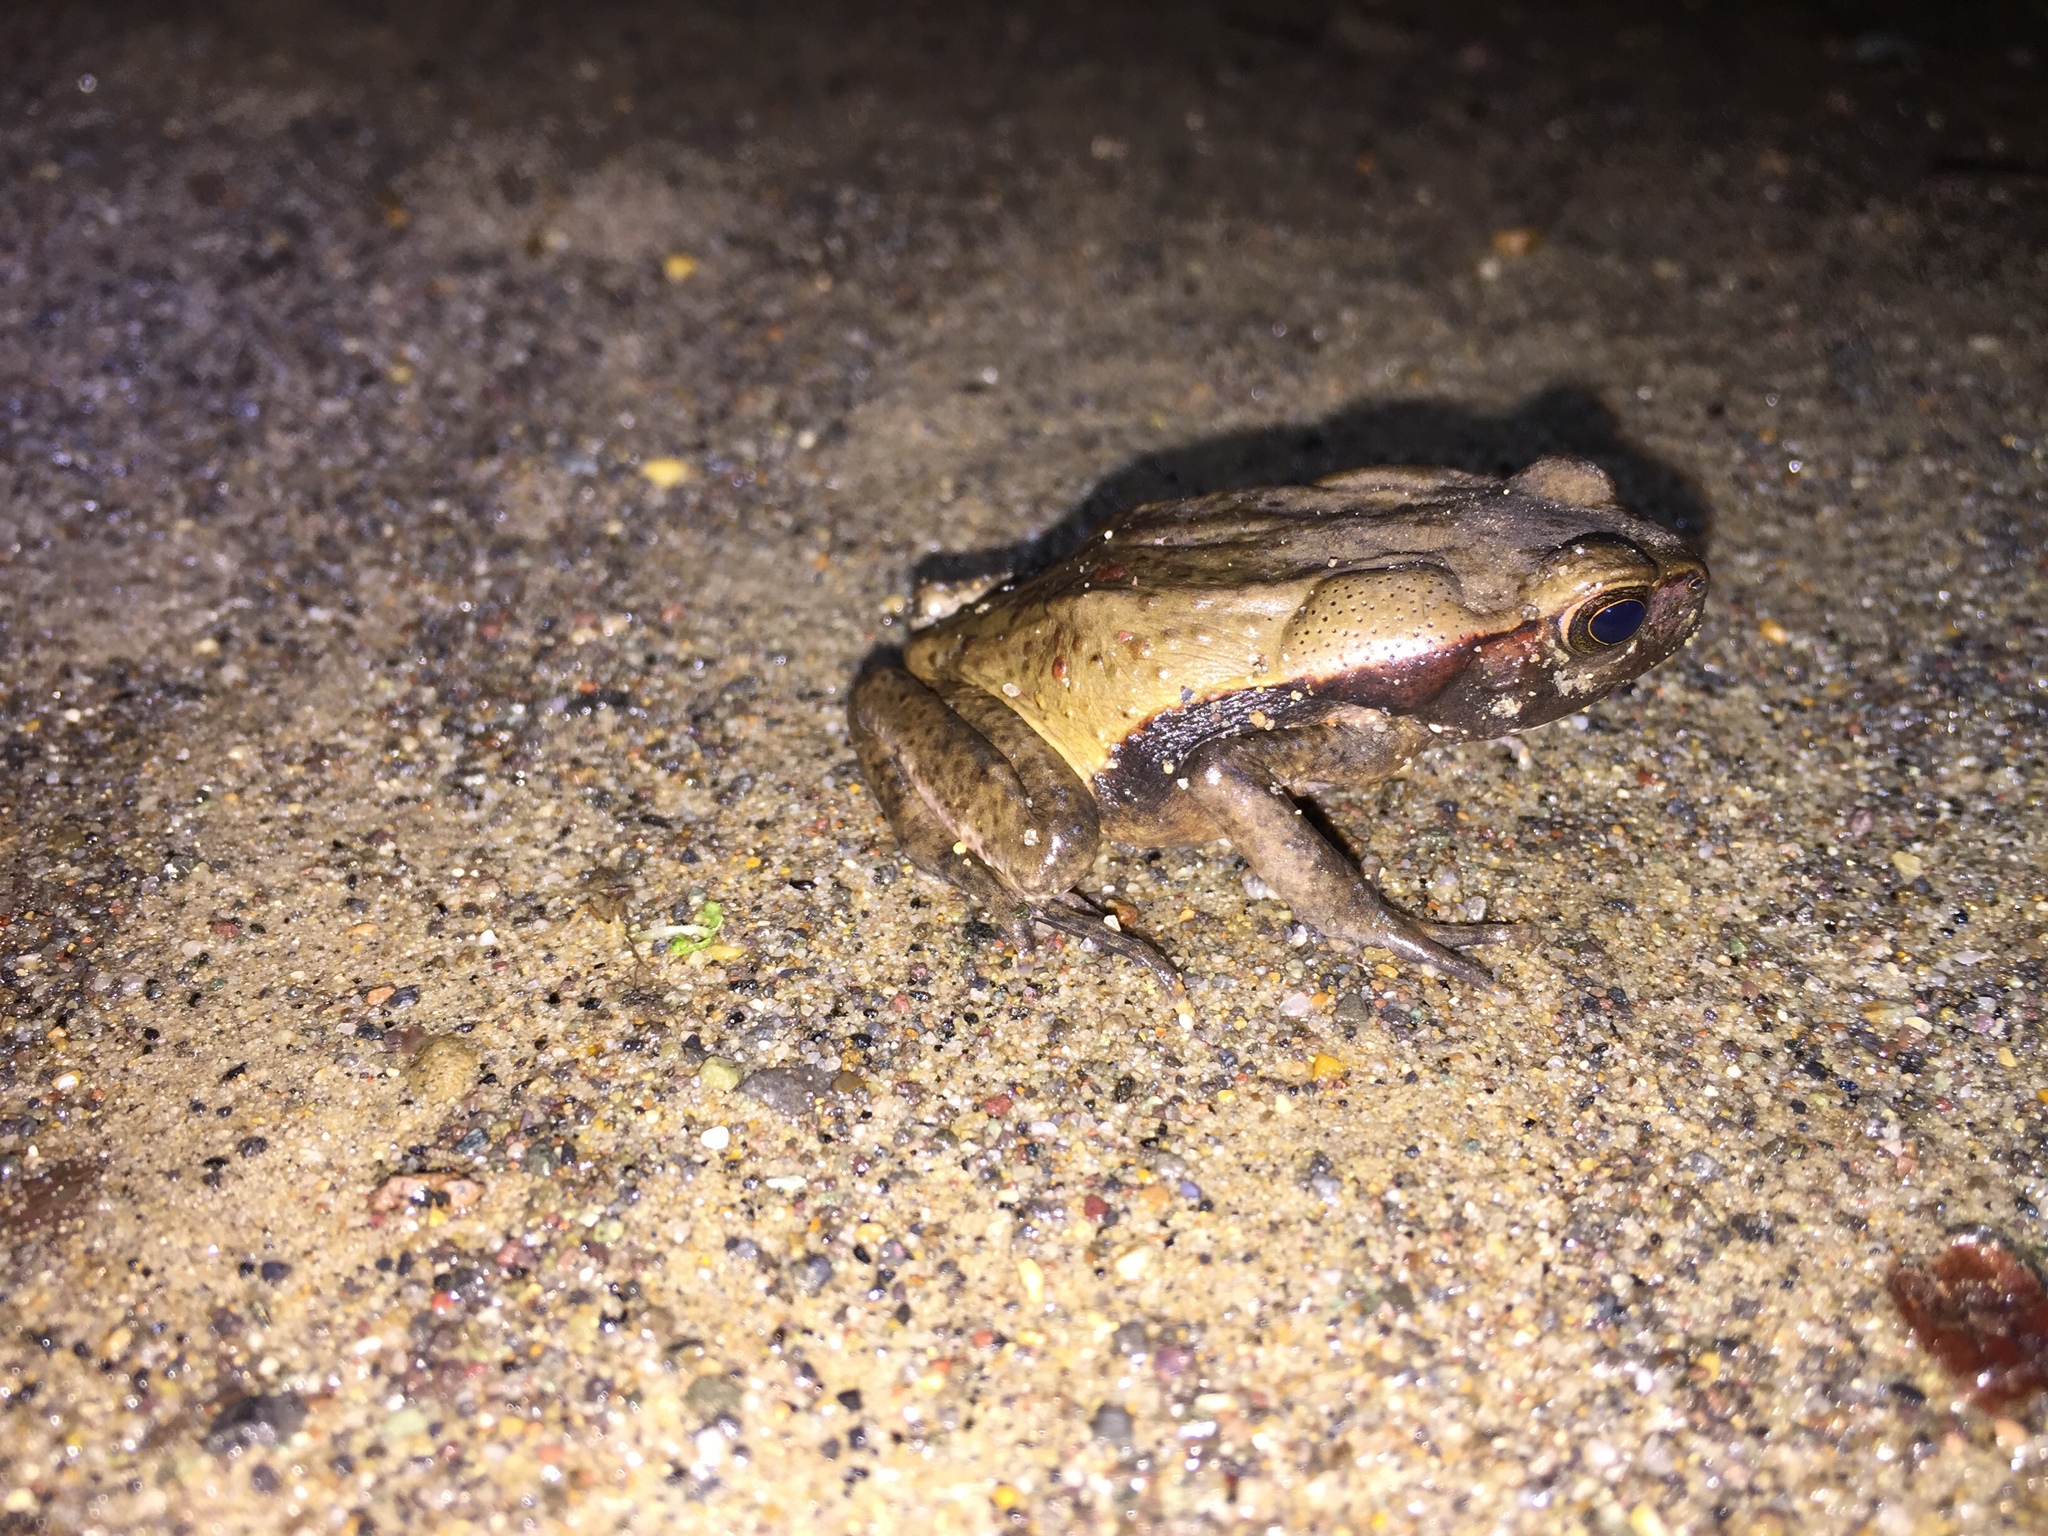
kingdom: Animalia
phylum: Chordata
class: Amphibia
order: Anura
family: Bufonidae
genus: Rhaebo
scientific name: Rhaebo ecuadorensis
